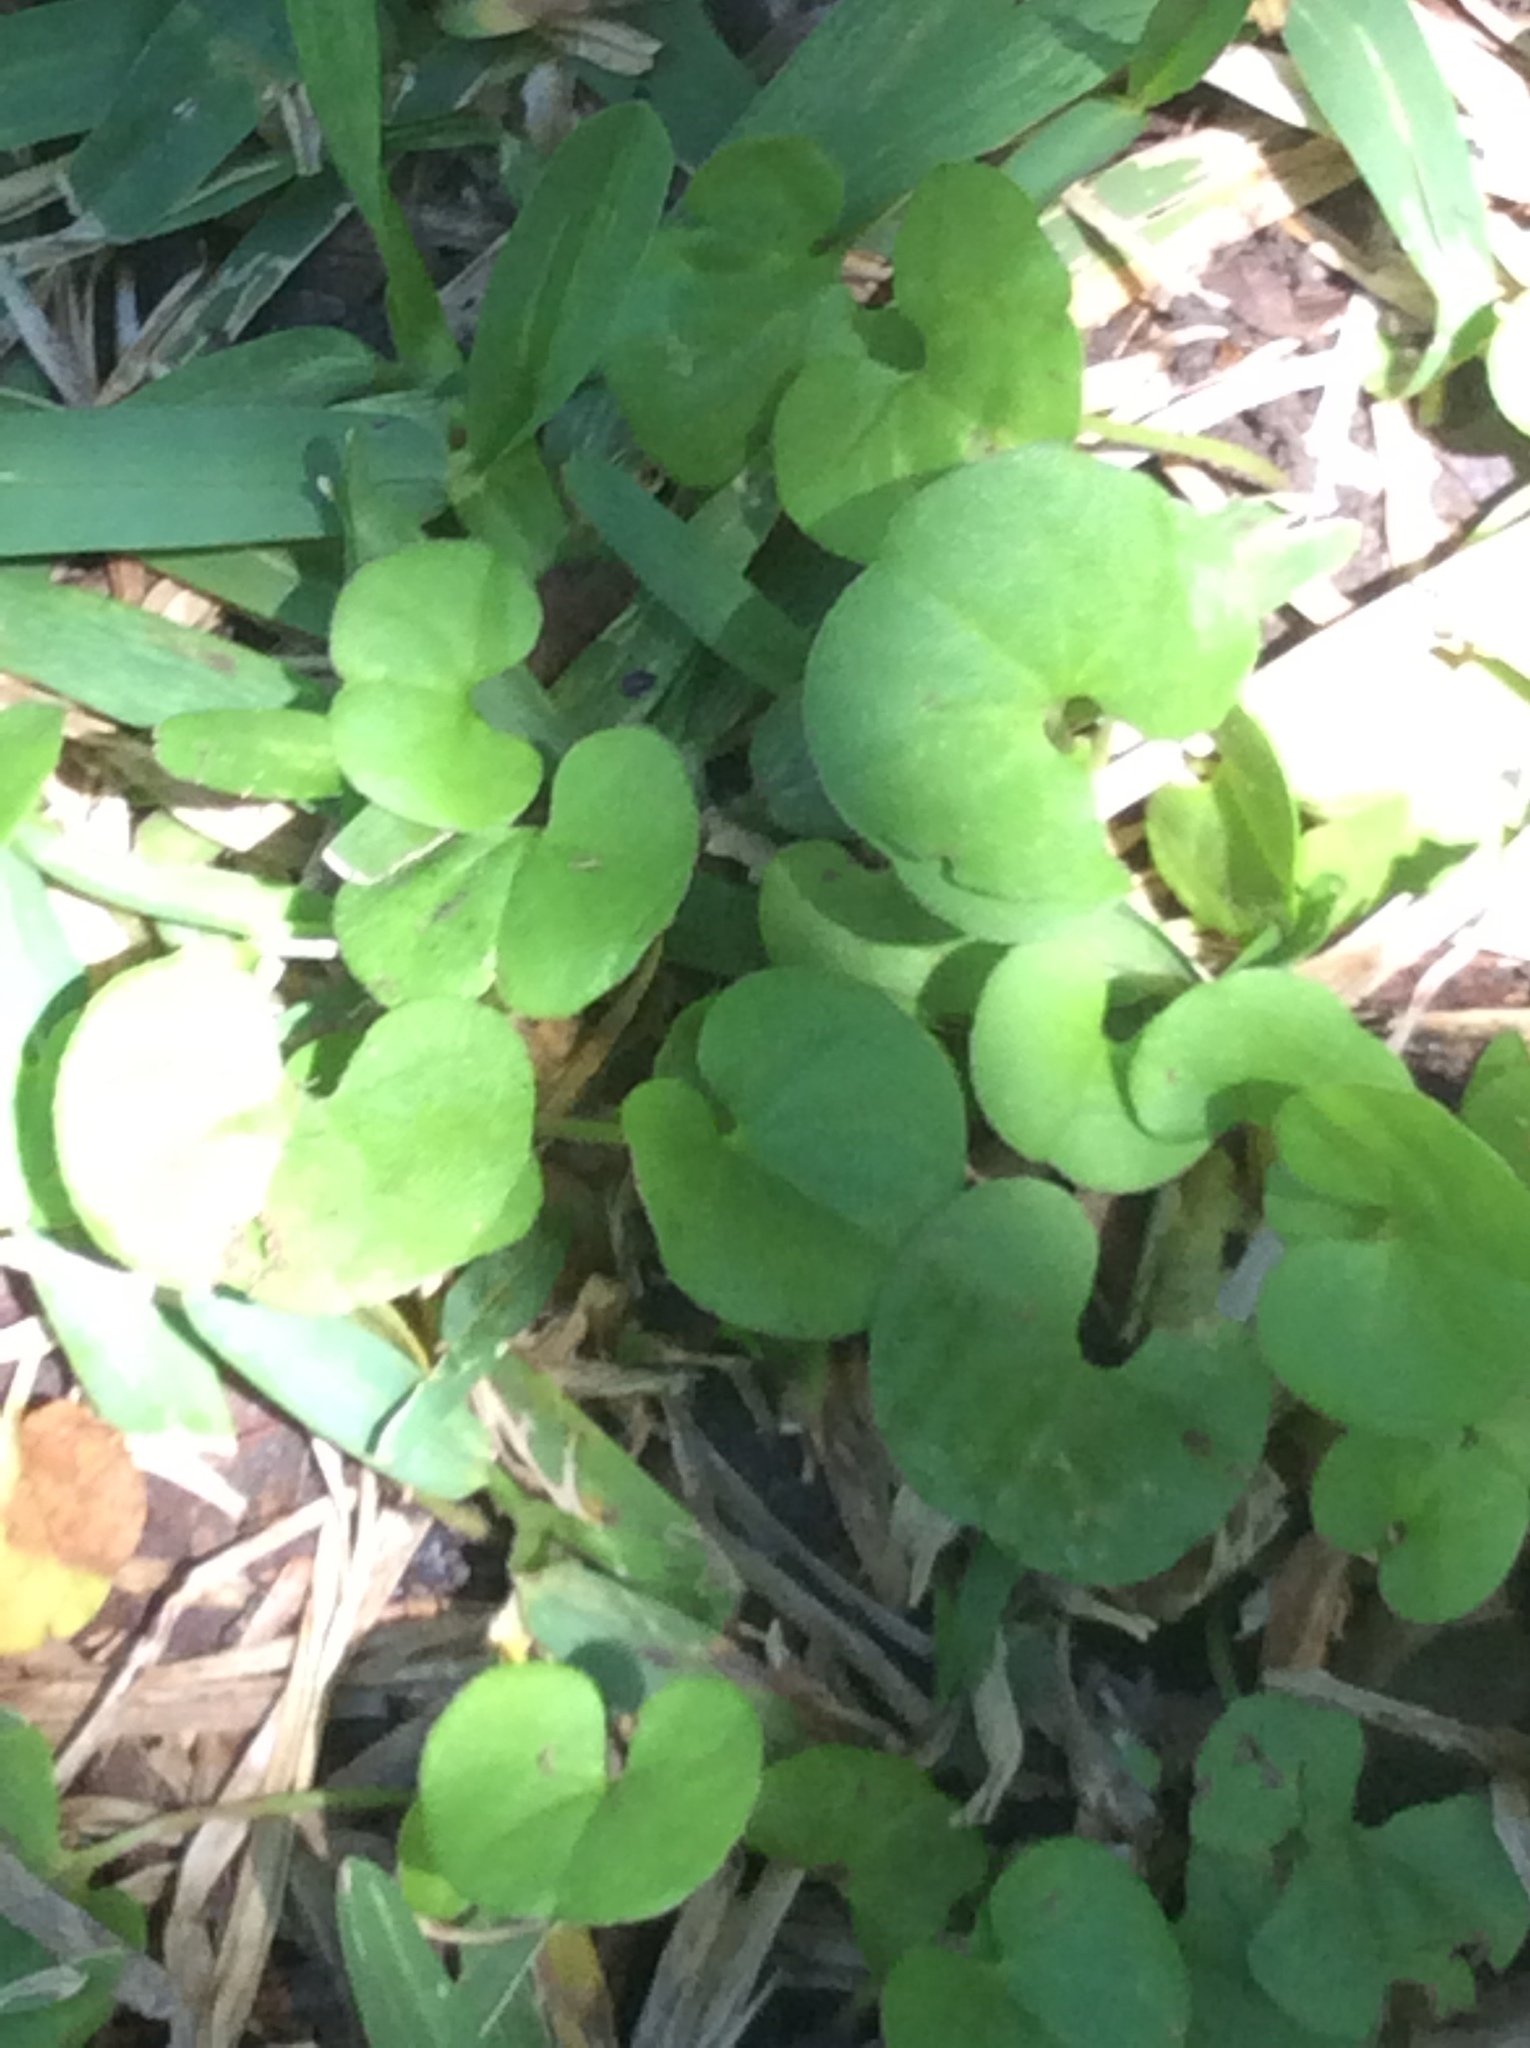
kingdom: Plantae
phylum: Tracheophyta
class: Magnoliopsida
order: Solanales
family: Convolvulaceae
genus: Dichondra
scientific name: Dichondra carolinensis
